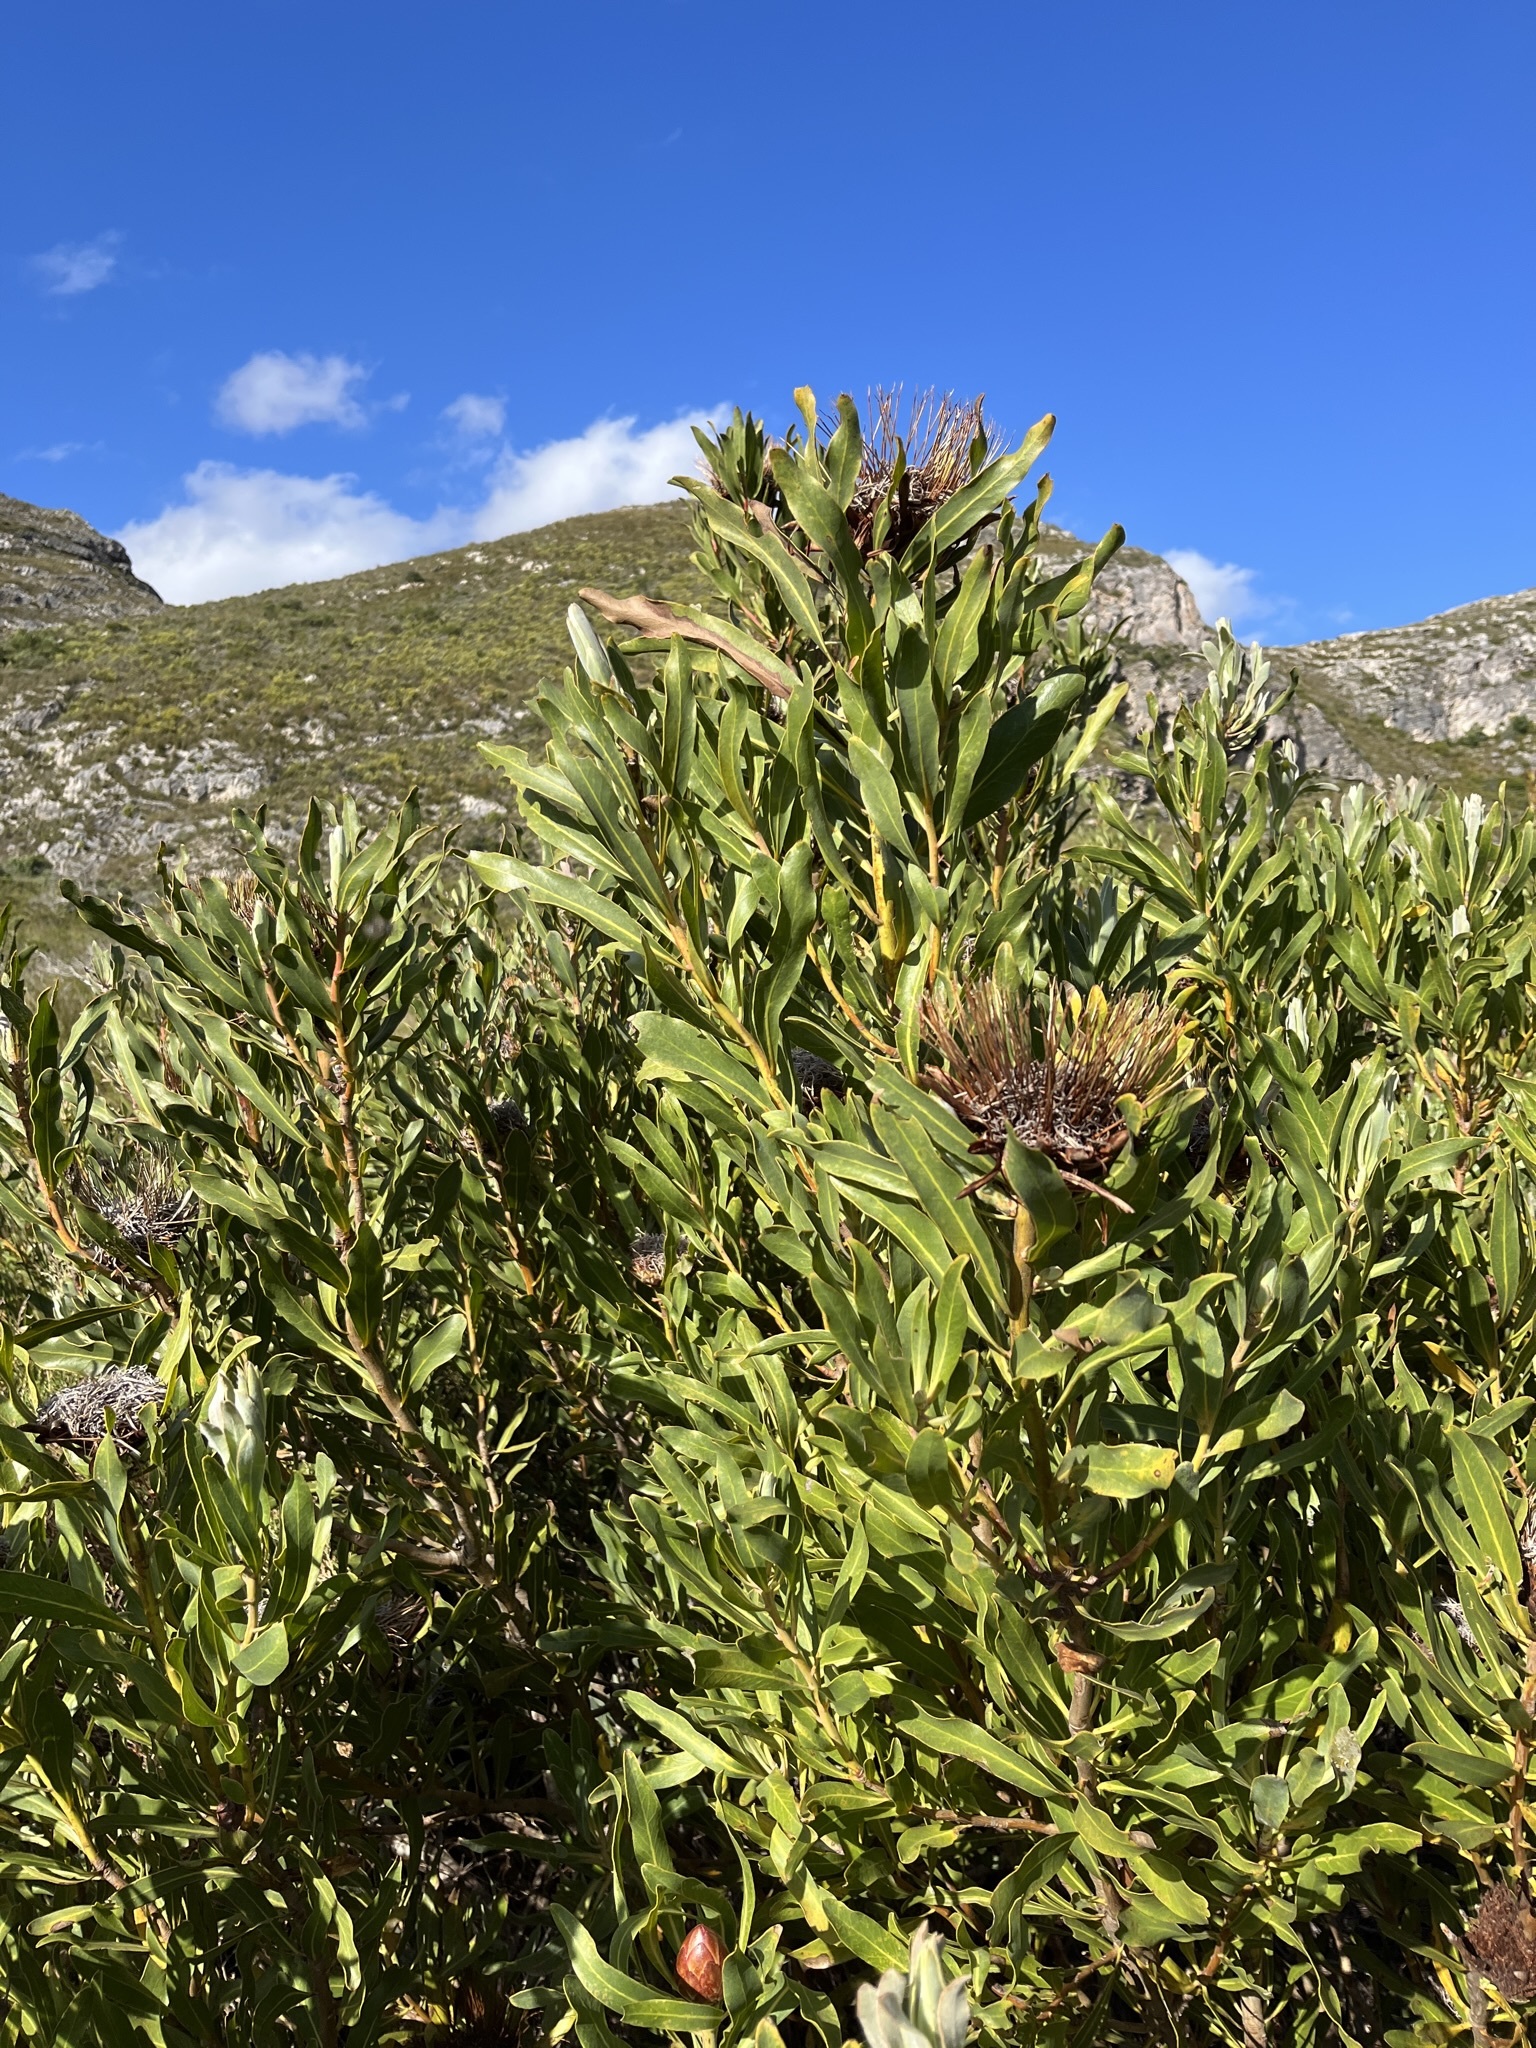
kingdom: Plantae
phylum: Tracheophyta
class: Magnoliopsida
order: Proteales
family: Proteaceae
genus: Protea
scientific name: Protea susannae
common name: Foetid-leaf sugarbush
